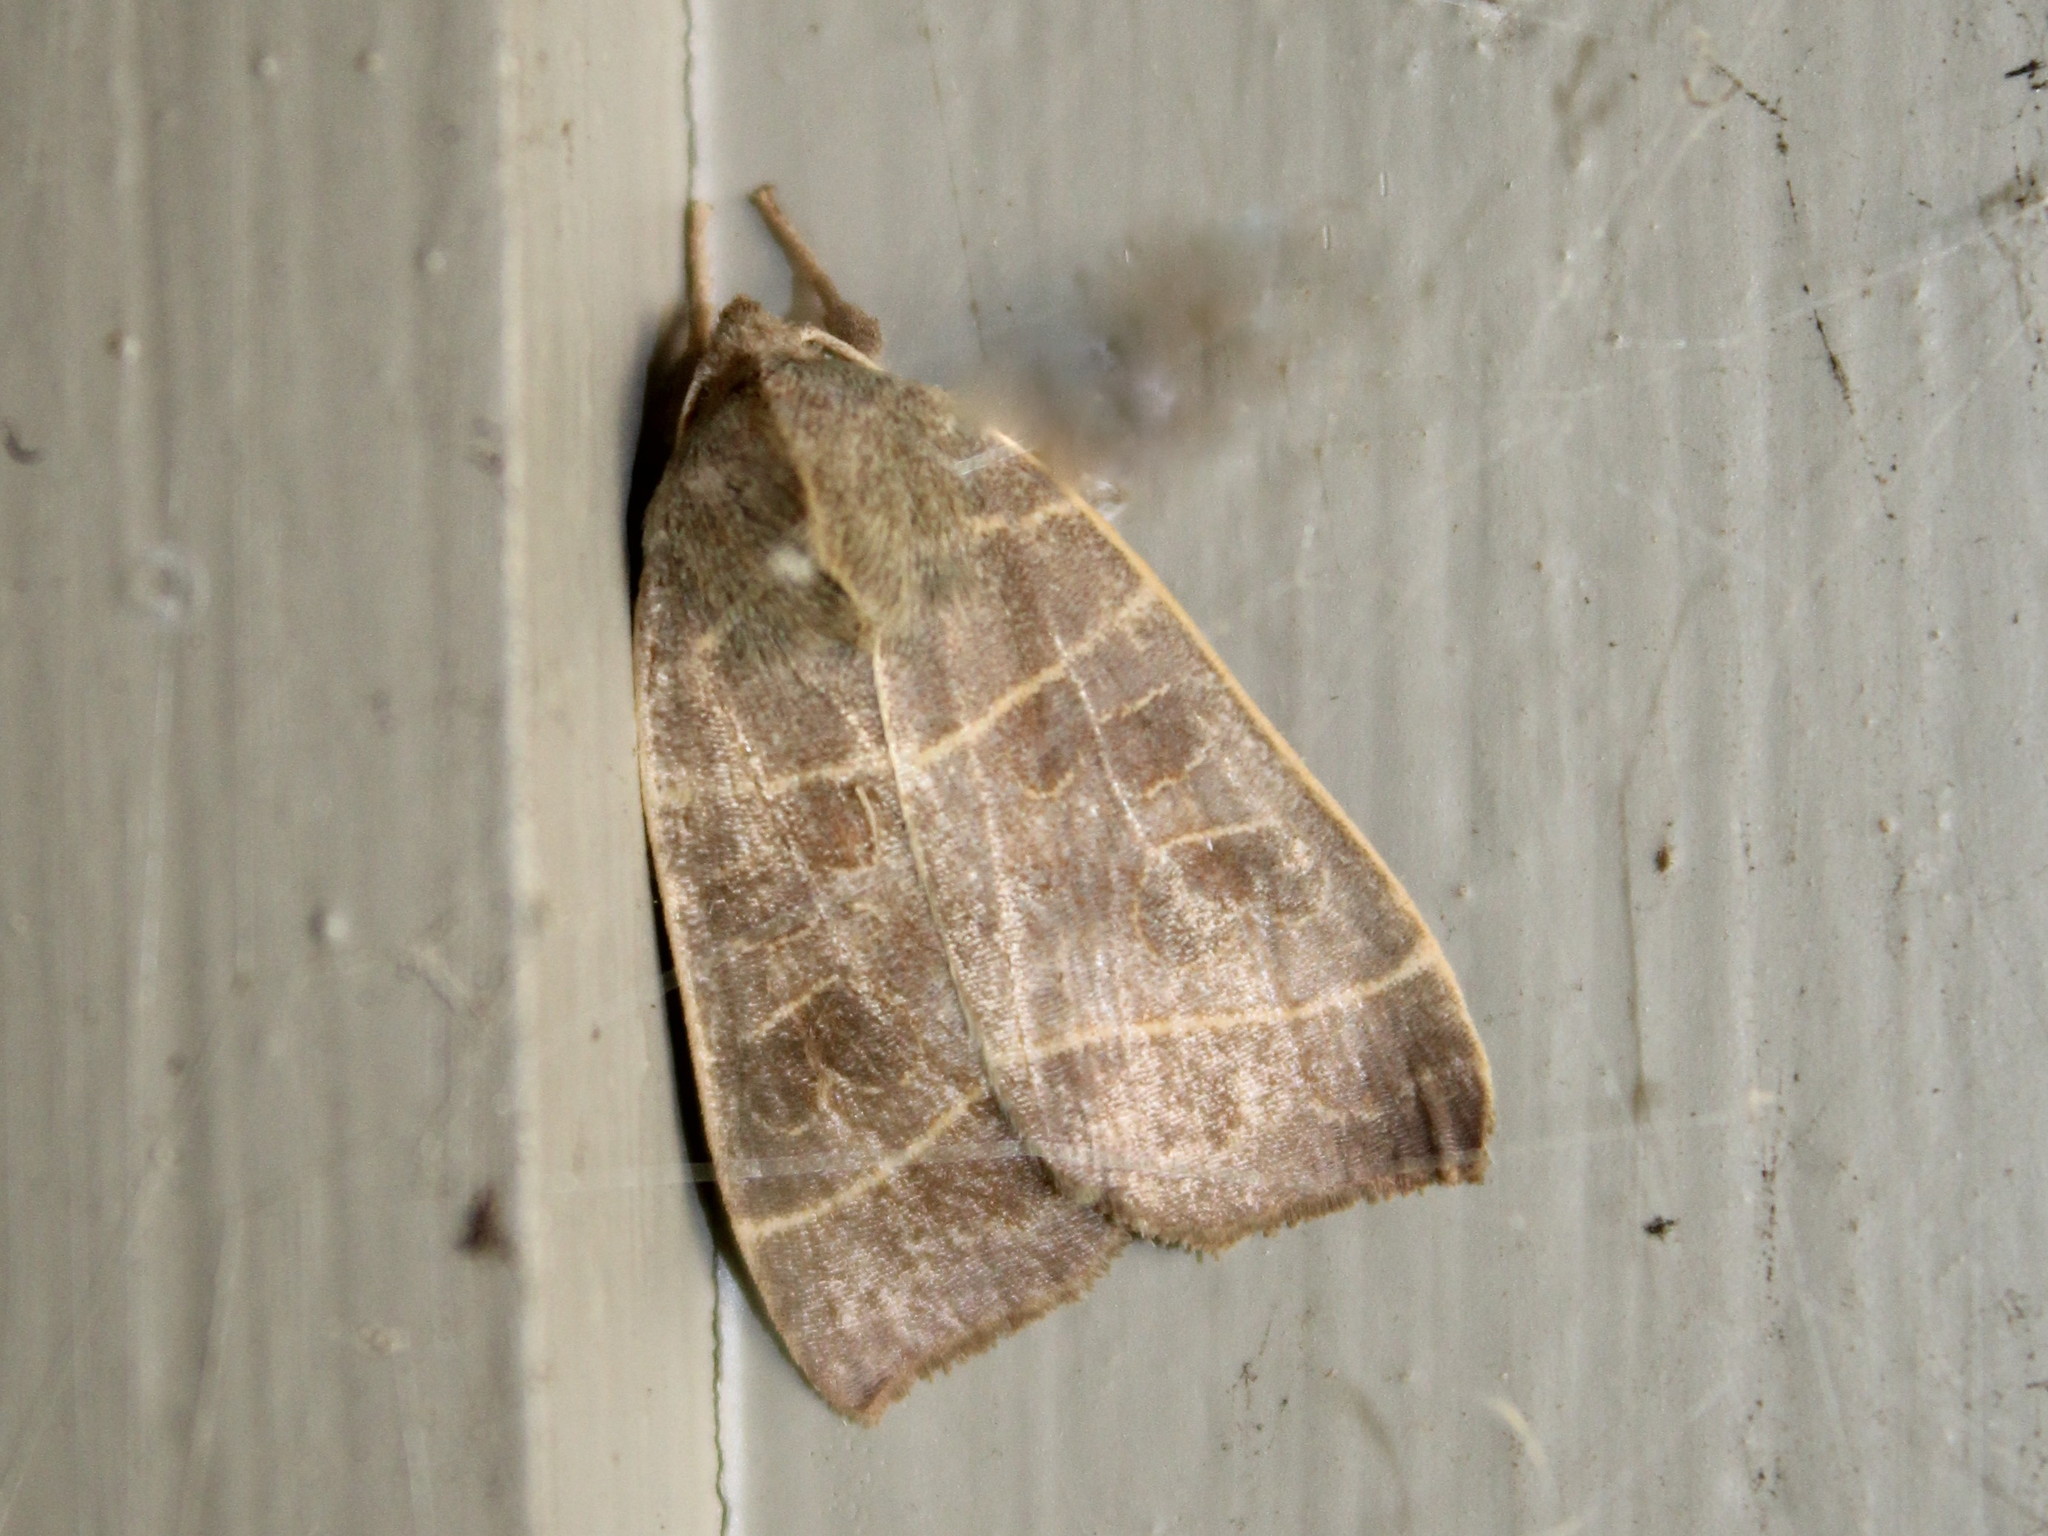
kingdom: Animalia
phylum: Arthropoda
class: Insecta
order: Lepidoptera
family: Noctuidae
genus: Ipimorpha
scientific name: Ipimorpha pleonectusa
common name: Even-lined sallow
